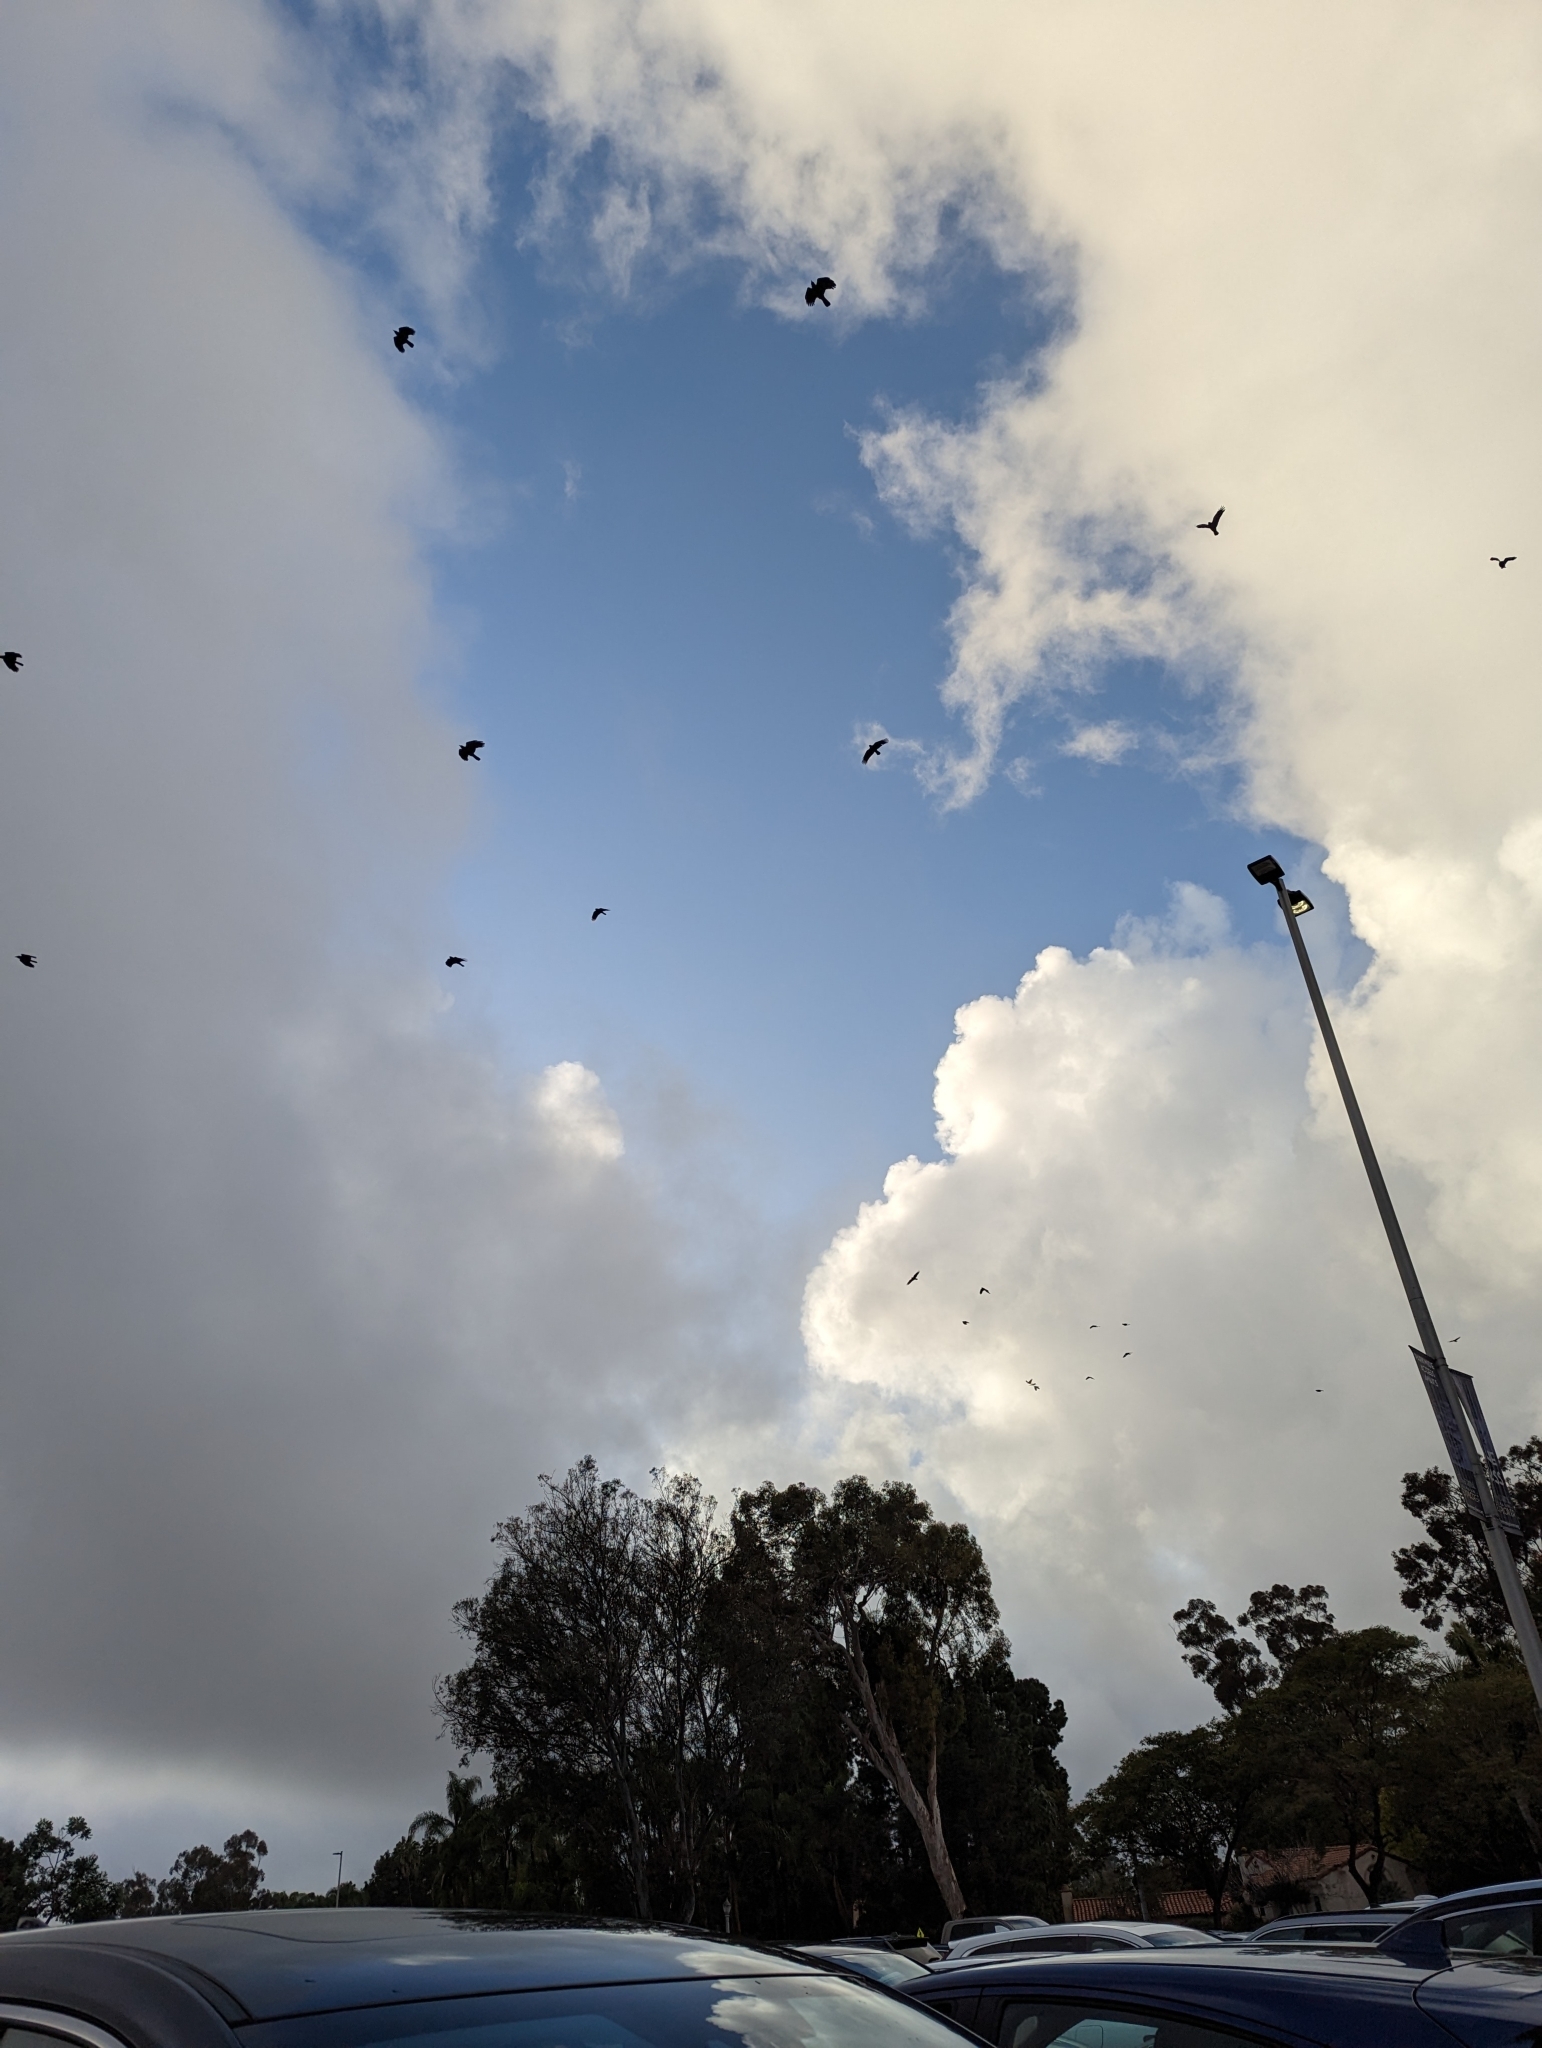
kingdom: Animalia
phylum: Chordata
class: Aves
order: Passeriformes
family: Corvidae
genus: Corvus
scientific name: Corvus brachyrhynchos
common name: American crow
